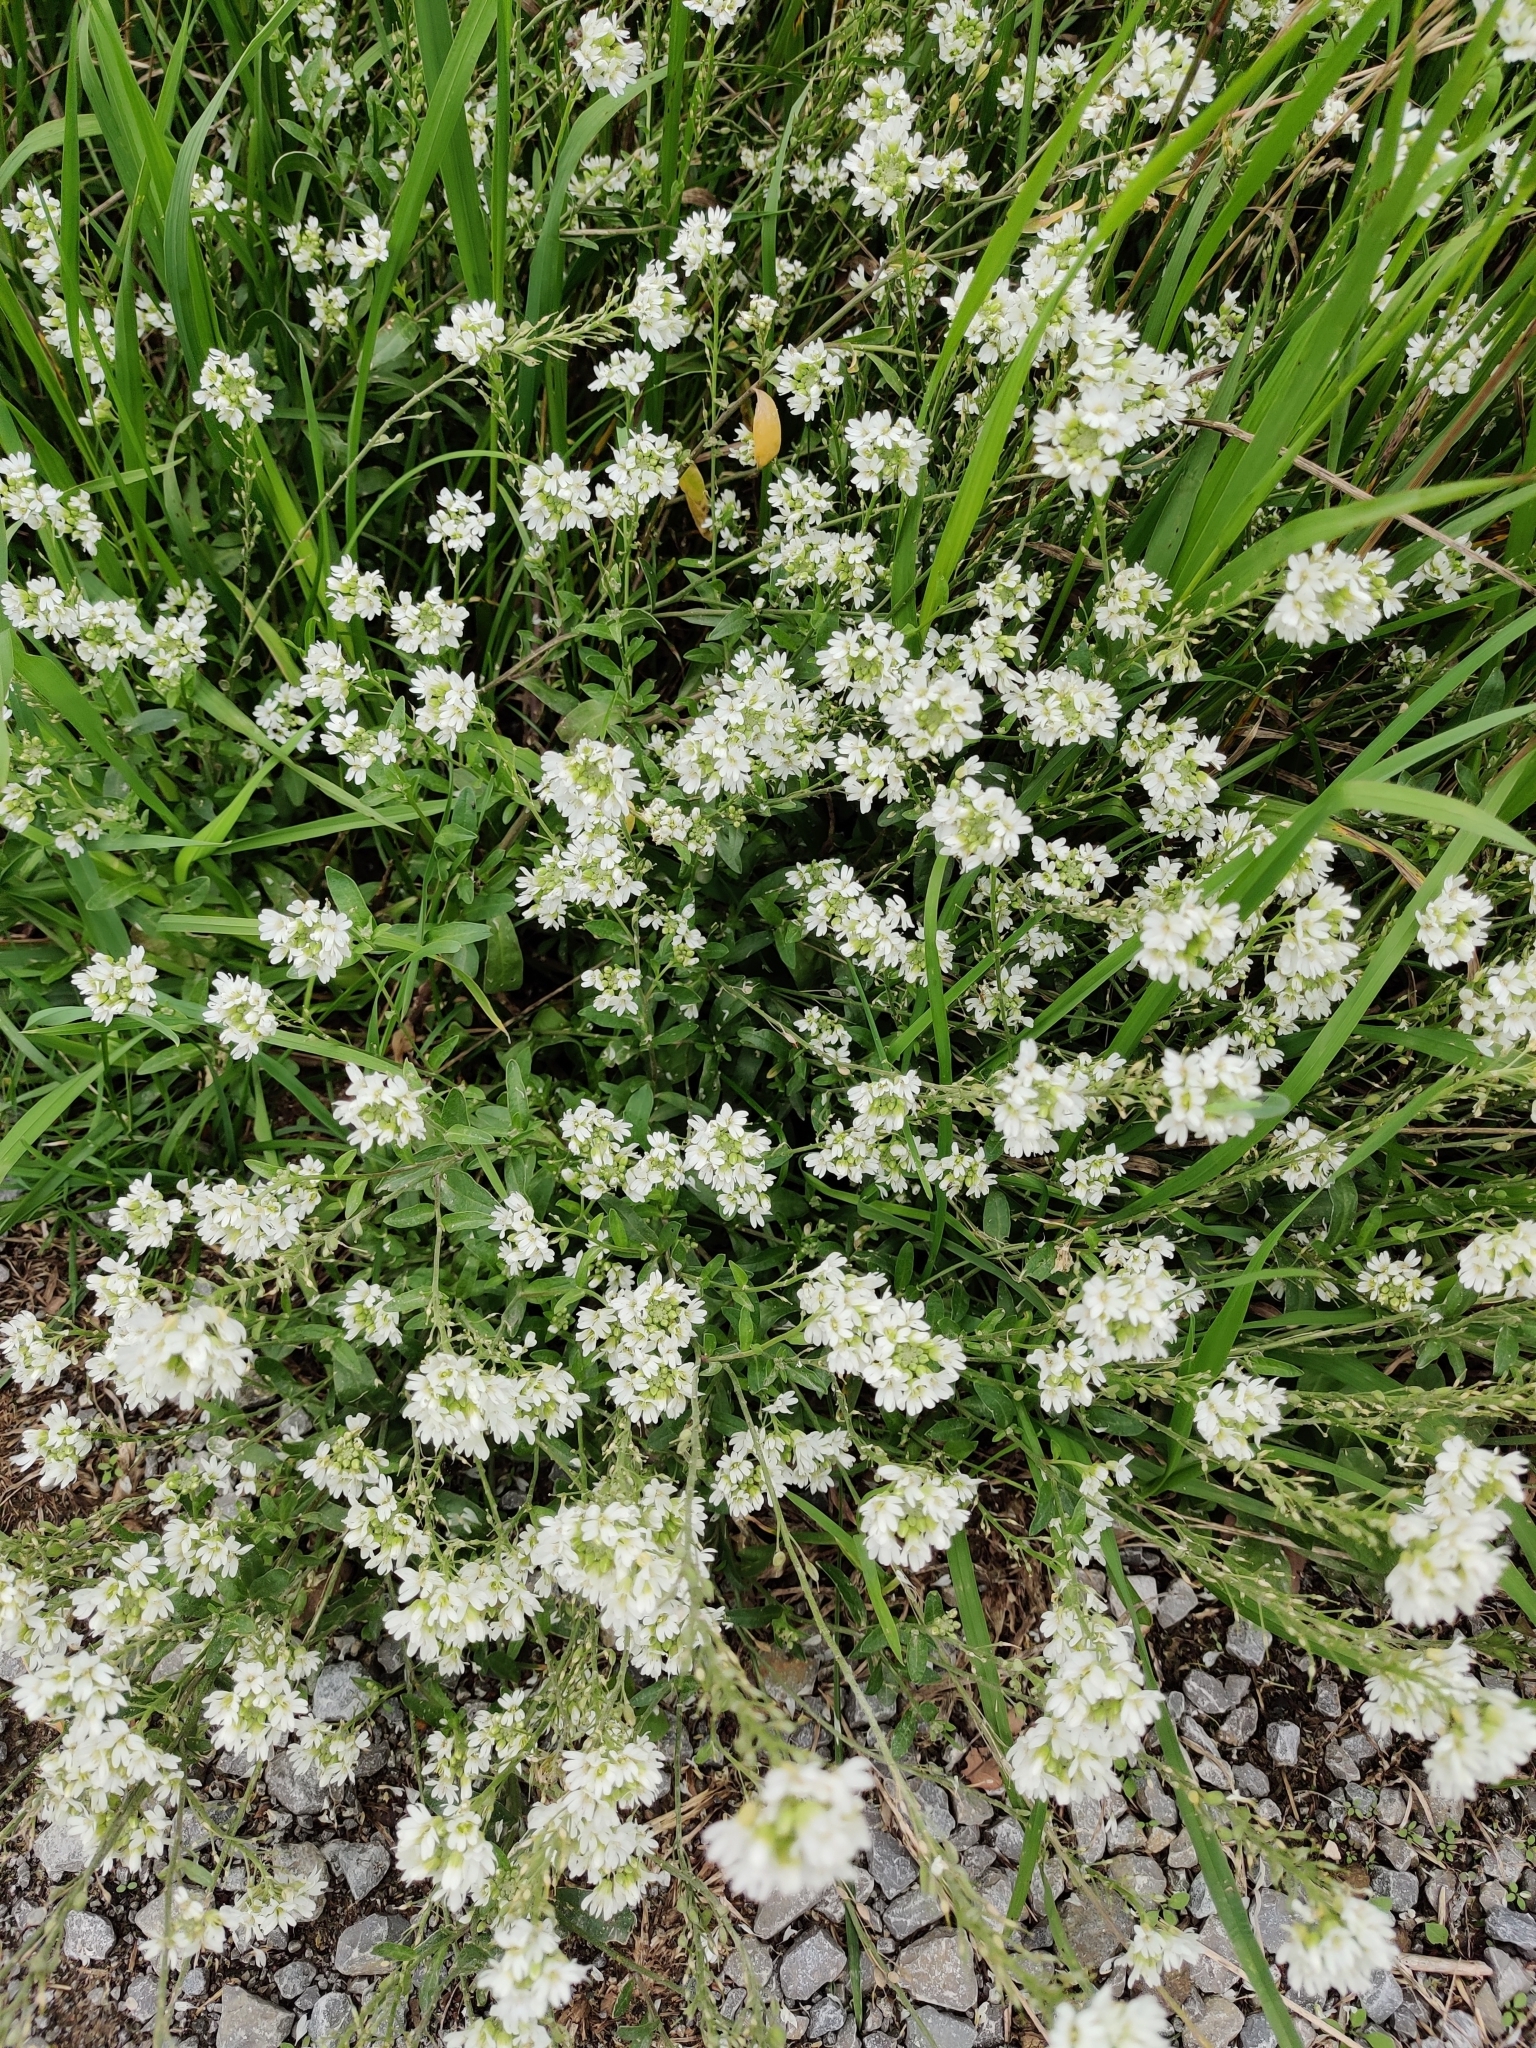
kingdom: Plantae
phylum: Tracheophyta
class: Magnoliopsida
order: Brassicales
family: Brassicaceae
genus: Berteroa
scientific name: Berteroa incana
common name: Hoary alison
